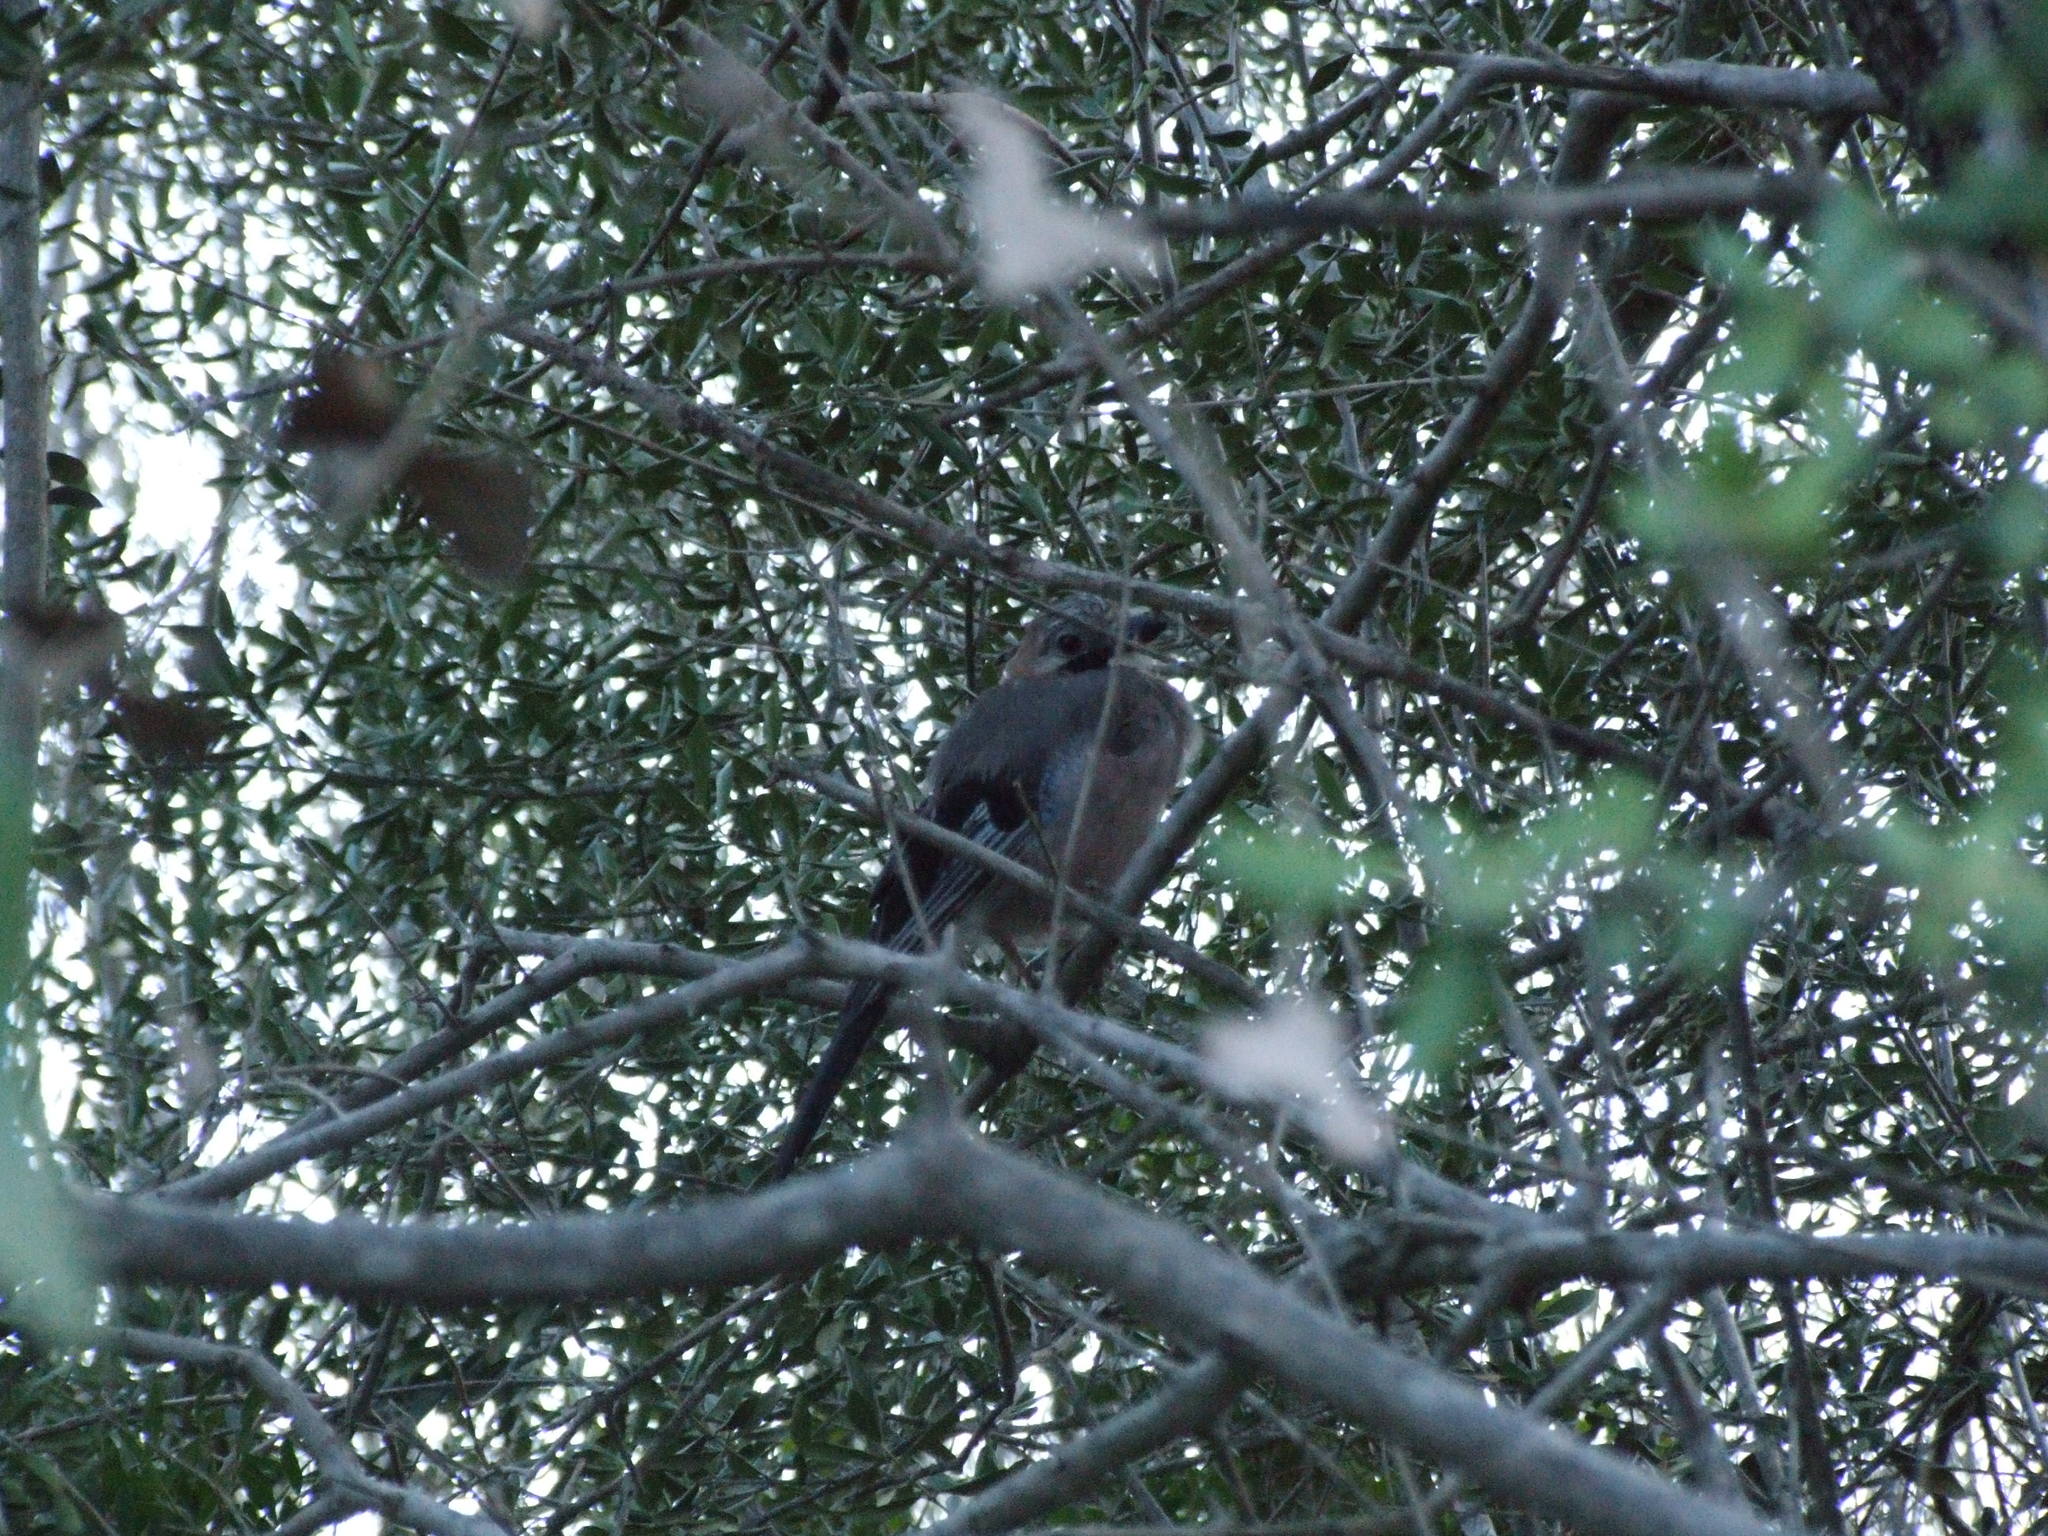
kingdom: Animalia
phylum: Chordata
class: Aves
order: Passeriformes
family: Corvidae
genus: Garrulus
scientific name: Garrulus glandarius
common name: Eurasian jay
